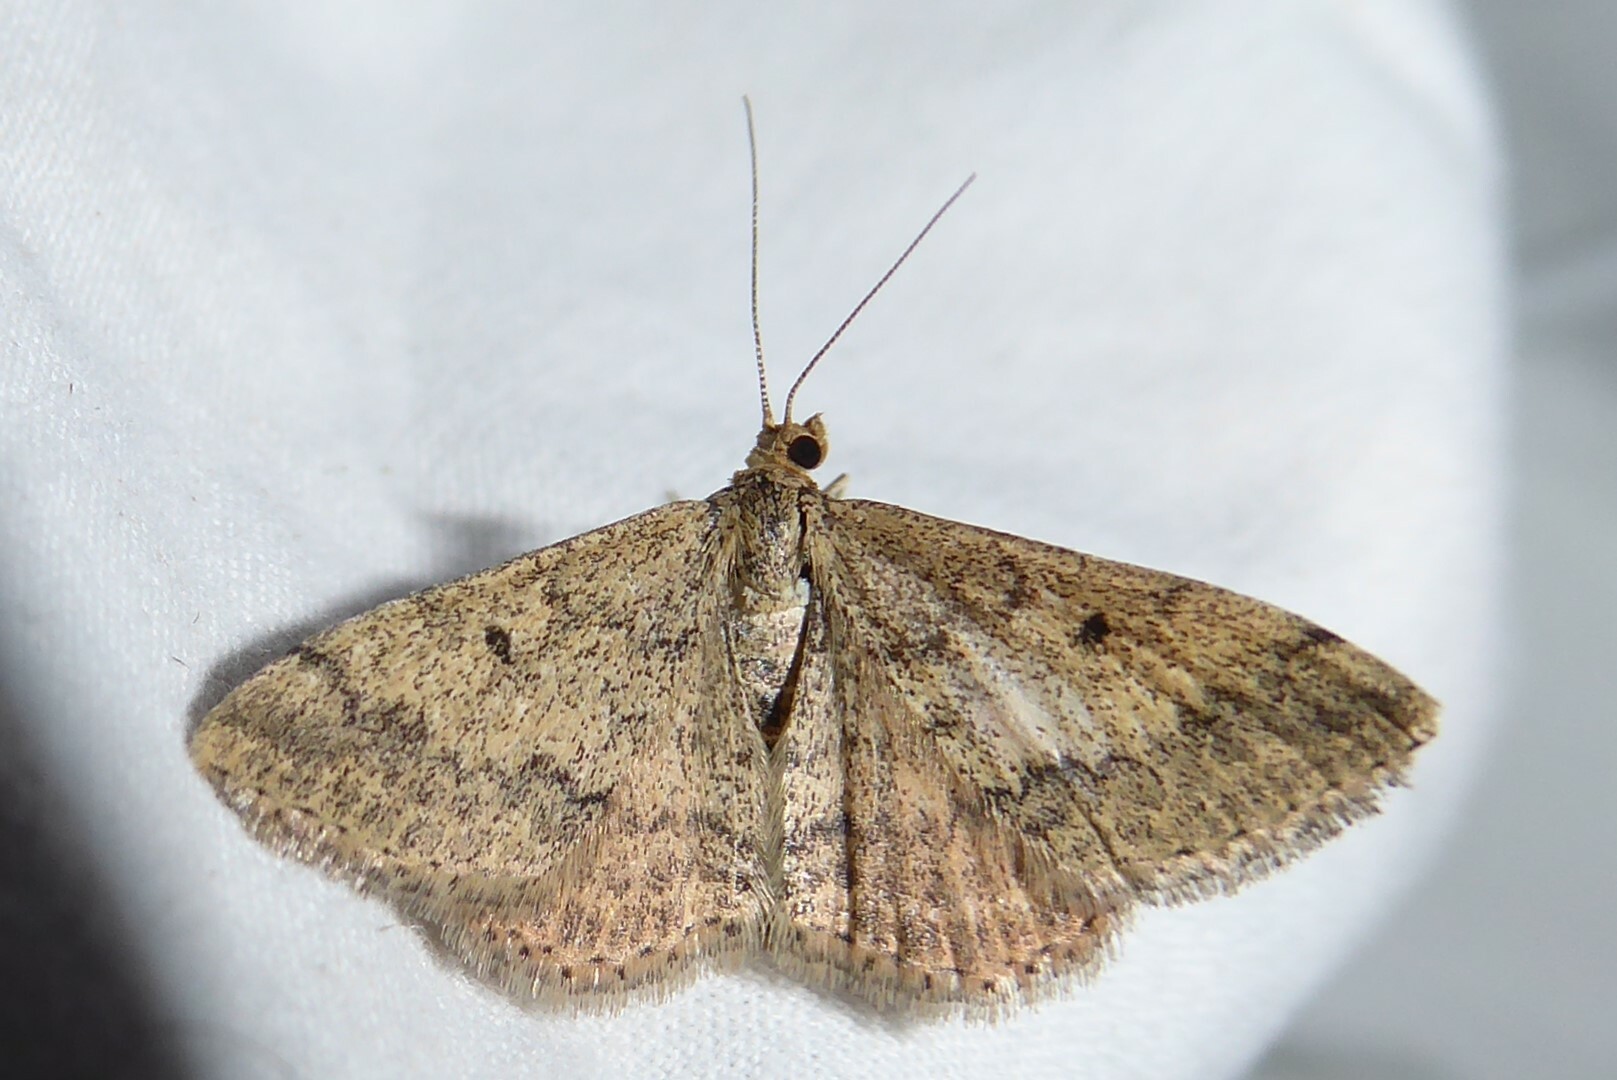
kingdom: Animalia
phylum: Arthropoda
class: Insecta
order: Lepidoptera
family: Geometridae
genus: Scopula
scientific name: Scopula rubraria
